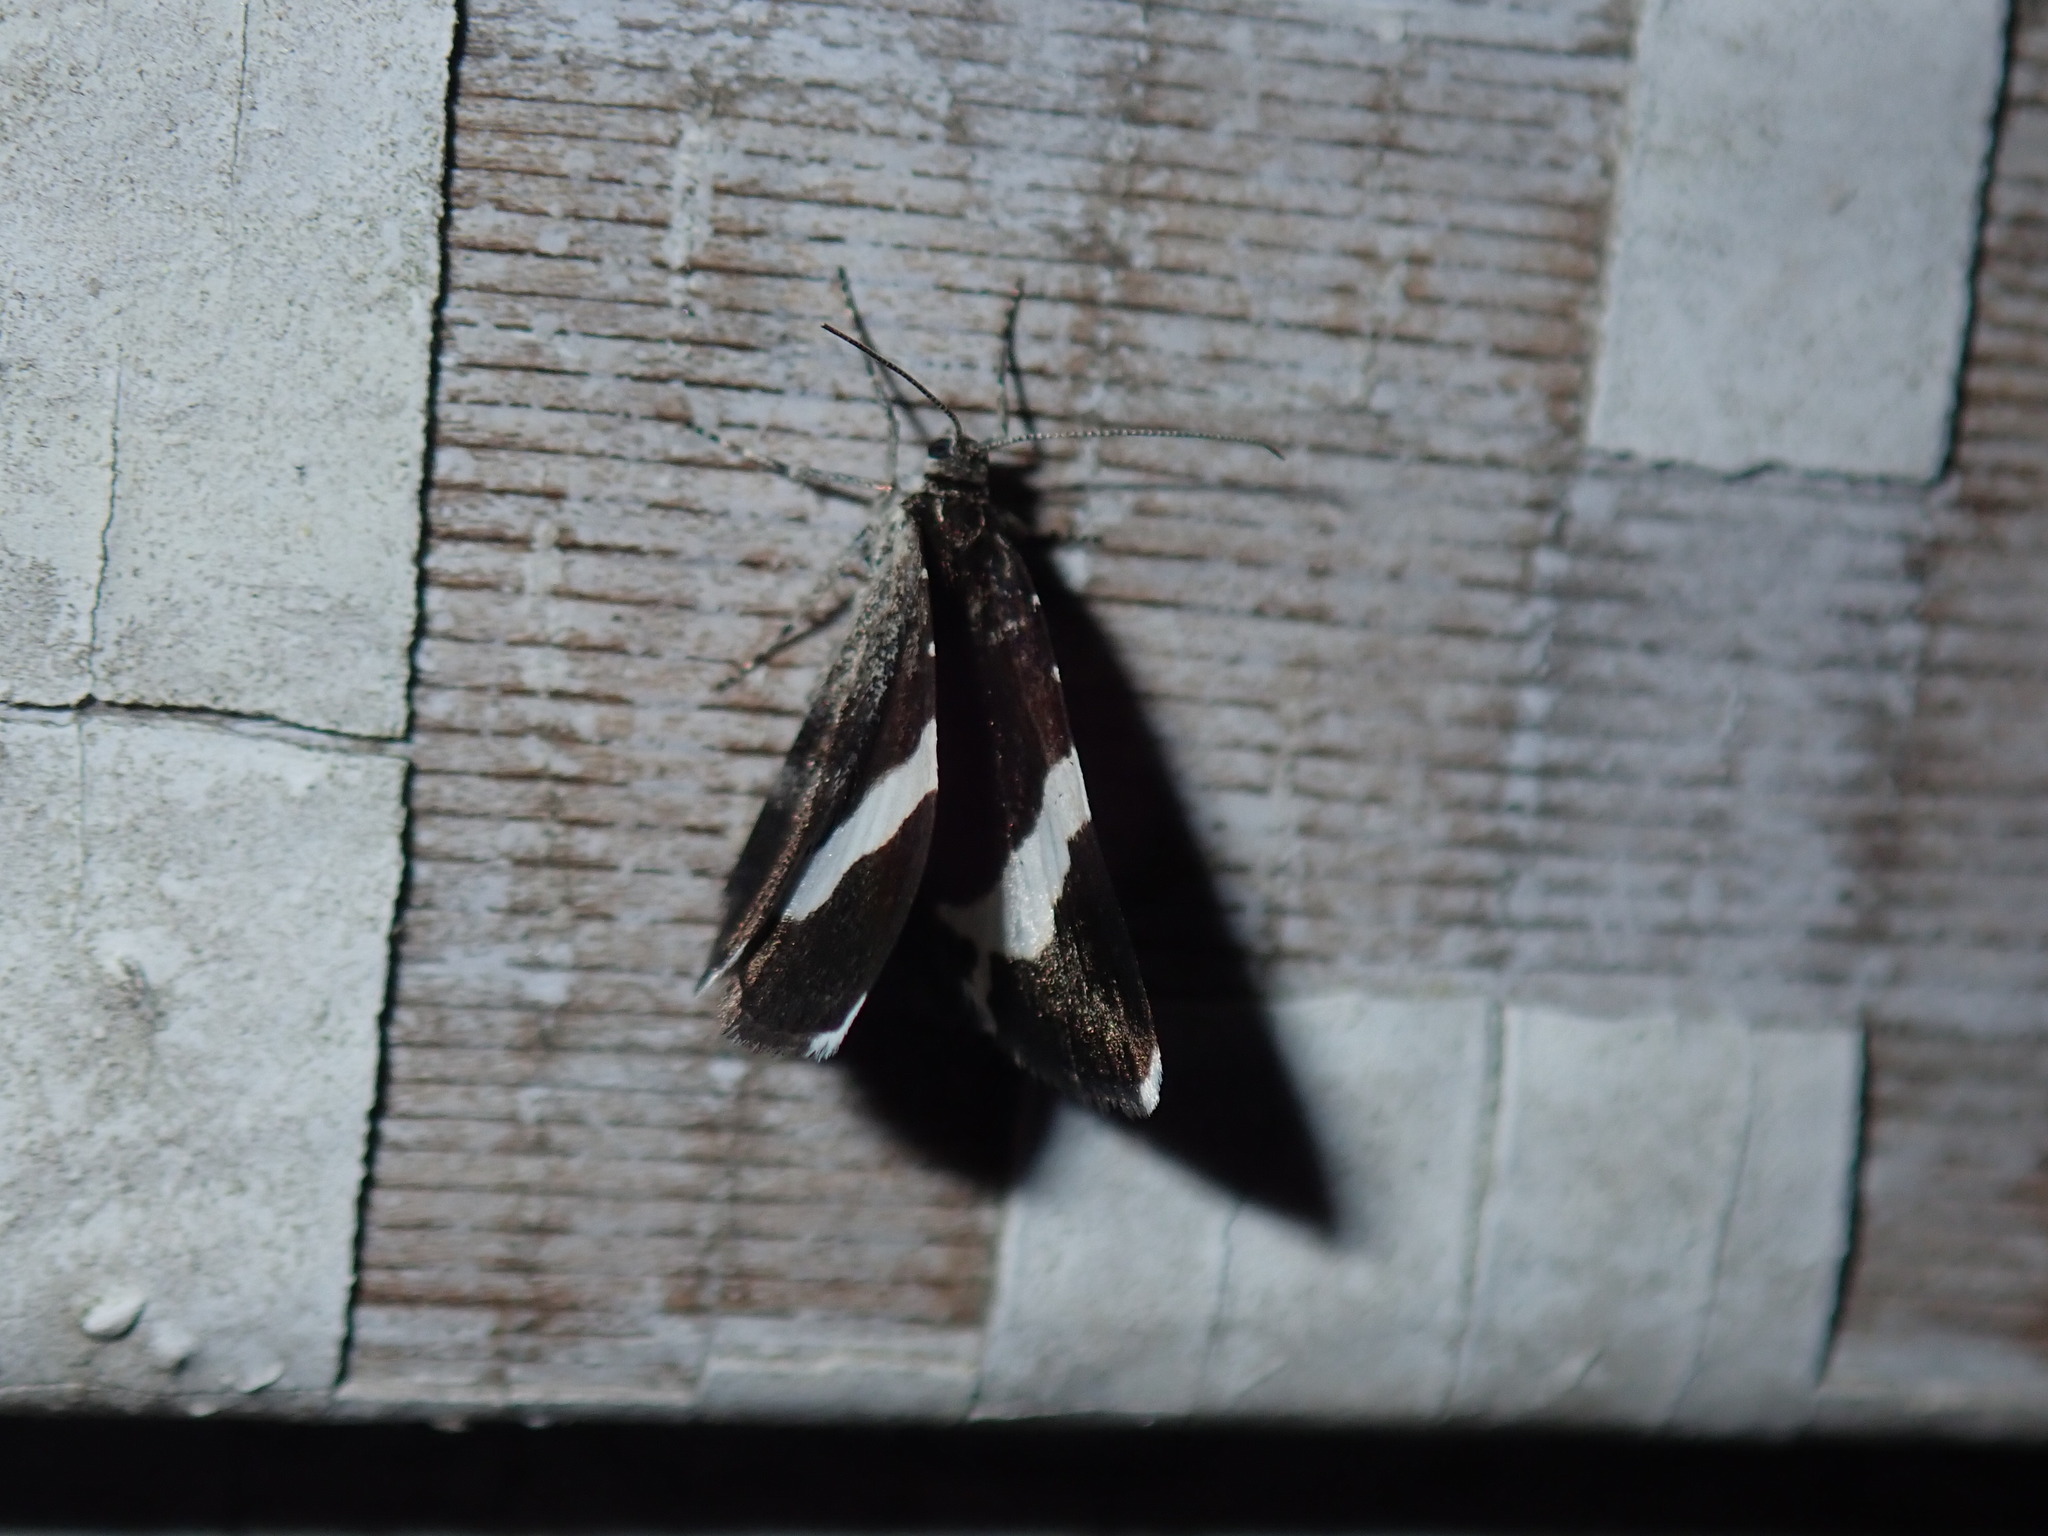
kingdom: Animalia
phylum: Arthropoda
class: Insecta
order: Lepidoptera
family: Geometridae
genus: Trichodezia
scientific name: Trichodezia albovittata
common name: White striped black
